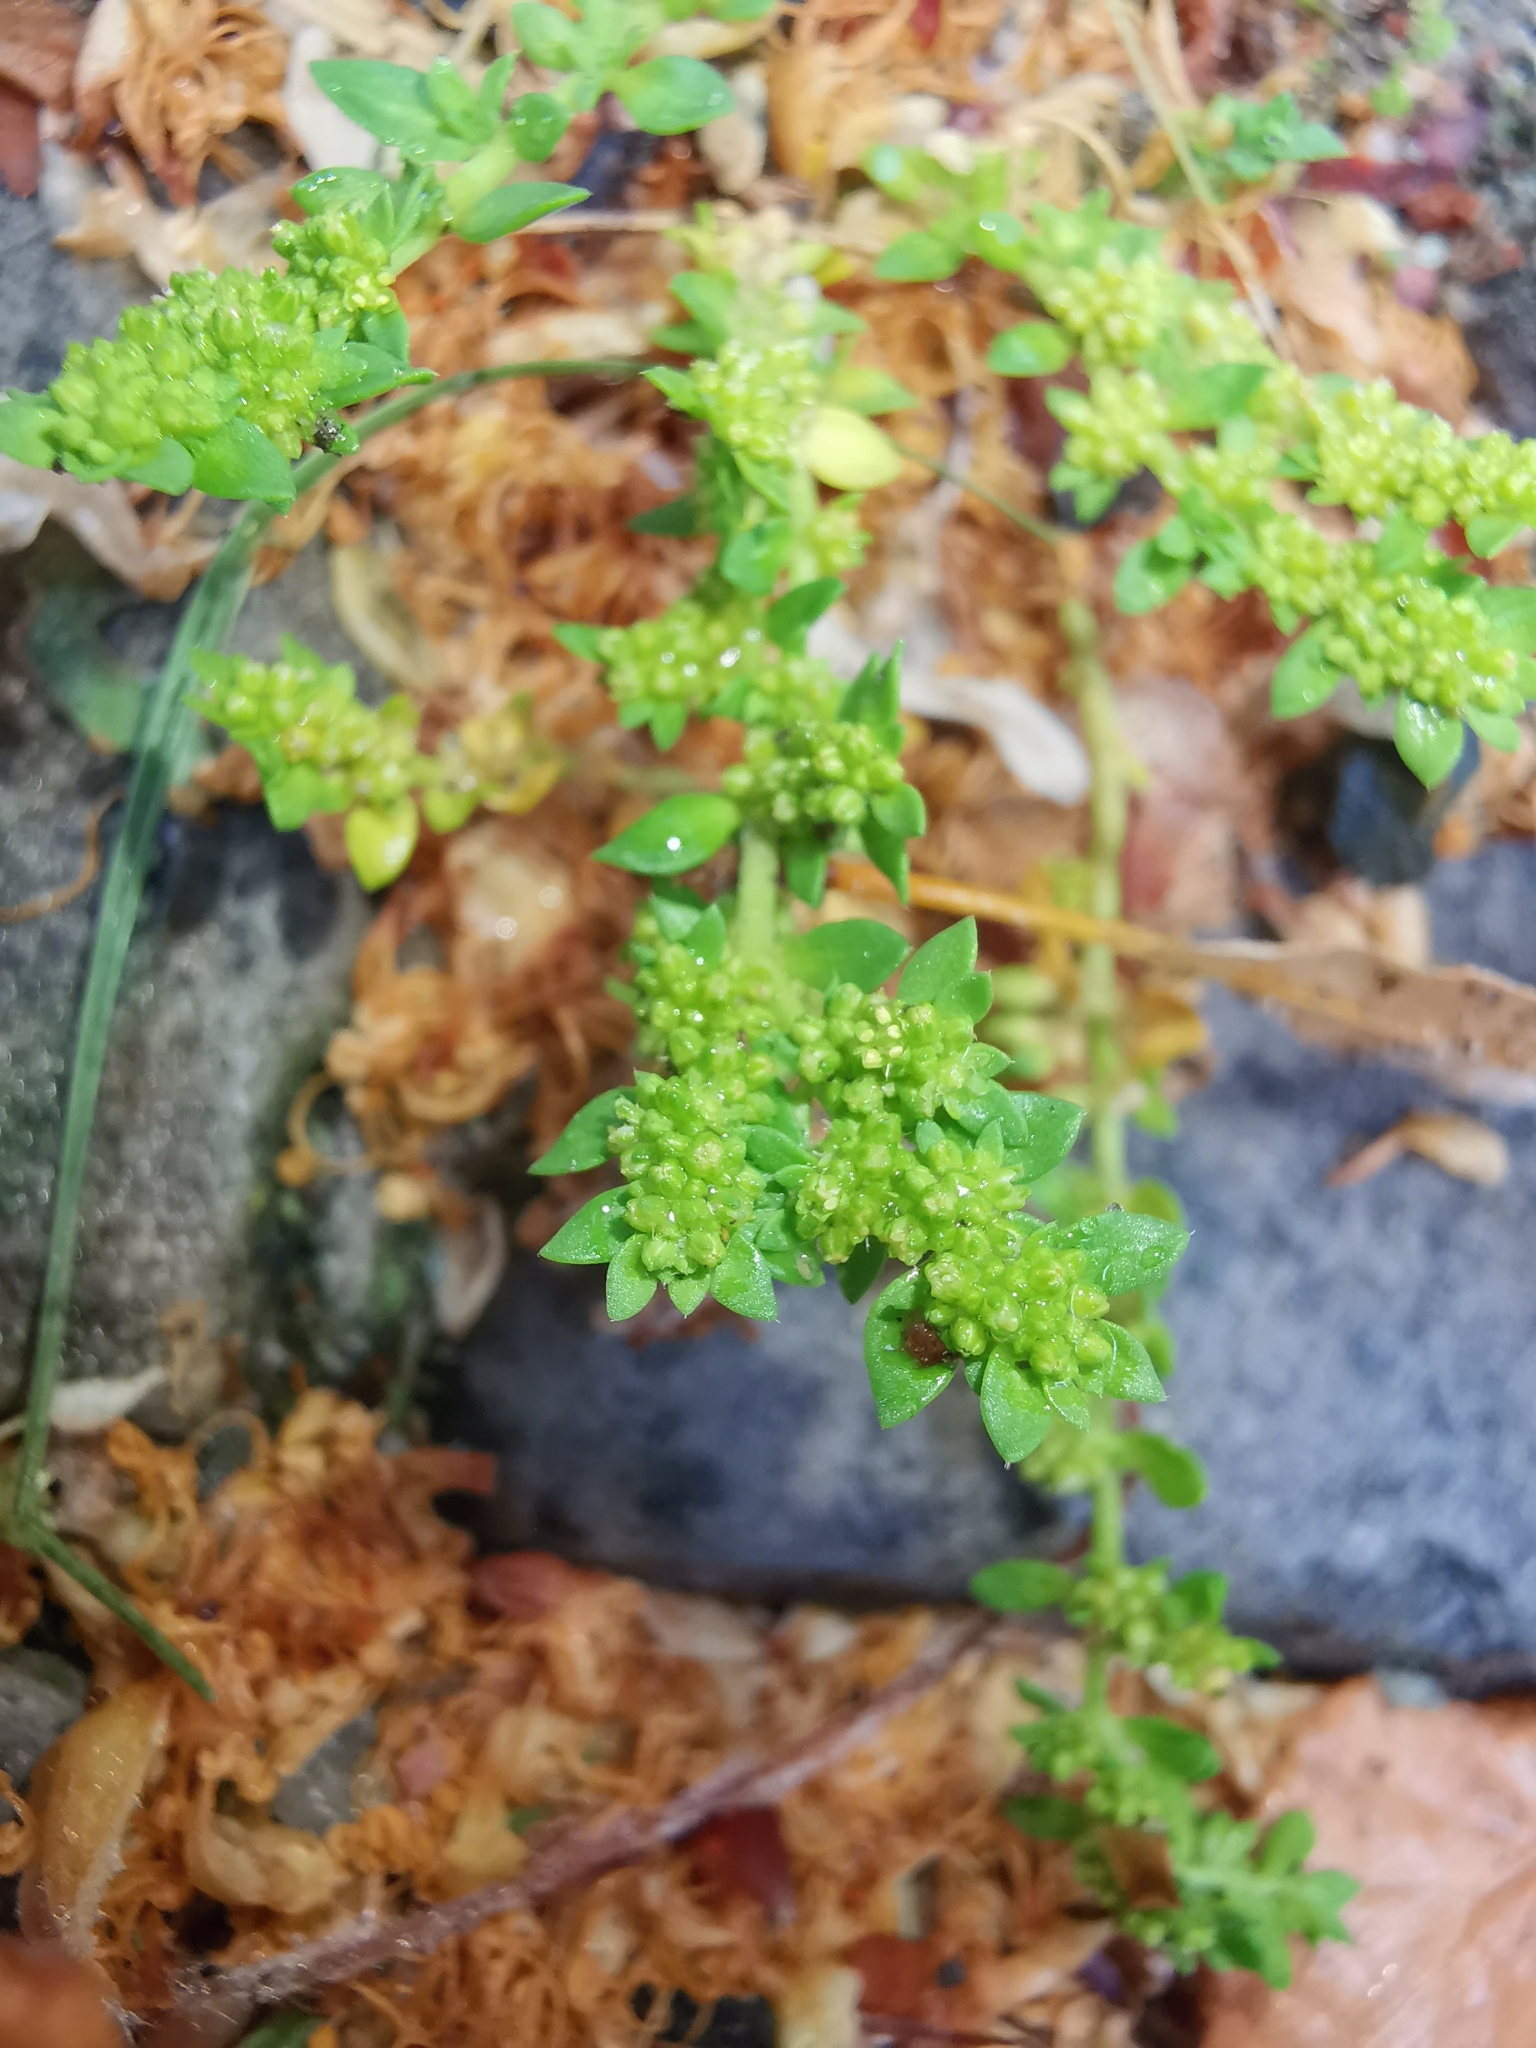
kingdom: Plantae
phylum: Tracheophyta
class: Magnoliopsida
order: Caryophyllales
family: Caryophyllaceae
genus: Herniaria
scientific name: Herniaria glabra
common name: Smooth rupturewort
